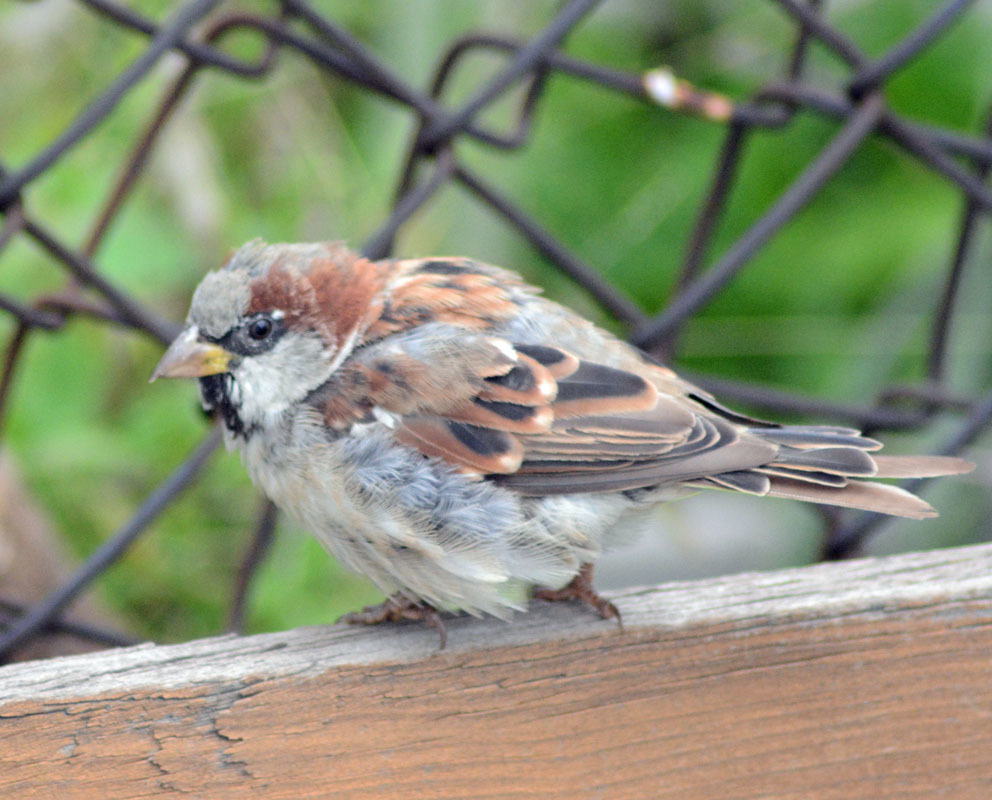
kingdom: Animalia
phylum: Chordata
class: Aves
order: Passeriformes
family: Passeridae
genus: Passer
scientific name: Passer domesticus
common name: House sparrow
